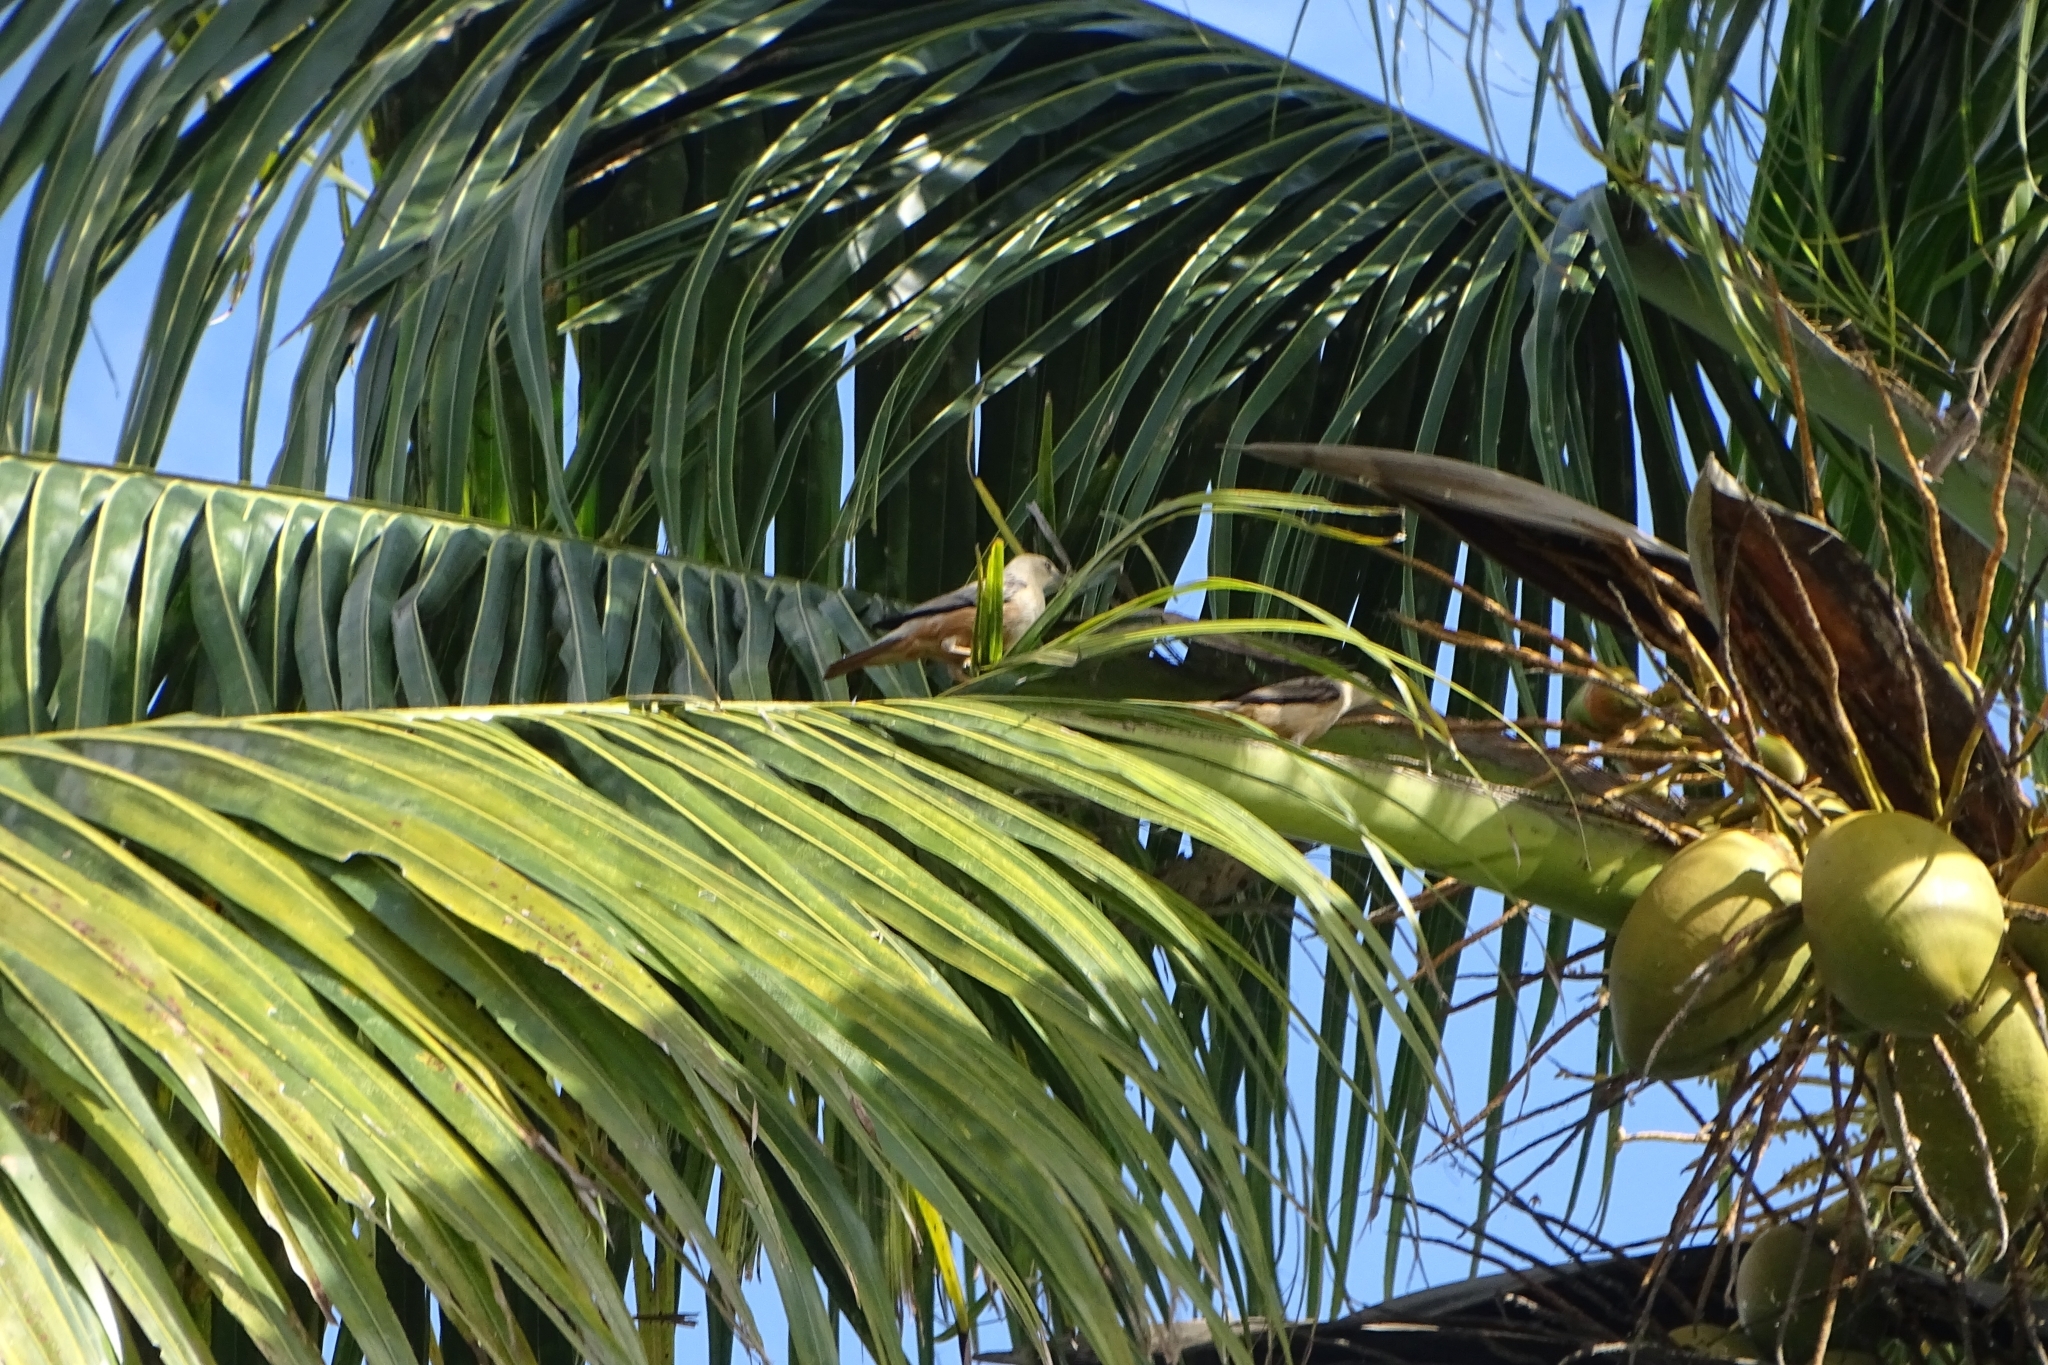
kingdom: Animalia
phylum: Chordata
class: Aves
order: Passeriformes
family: Sturnidae
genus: Sturnia
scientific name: Sturnia blythii
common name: Malabar starling
